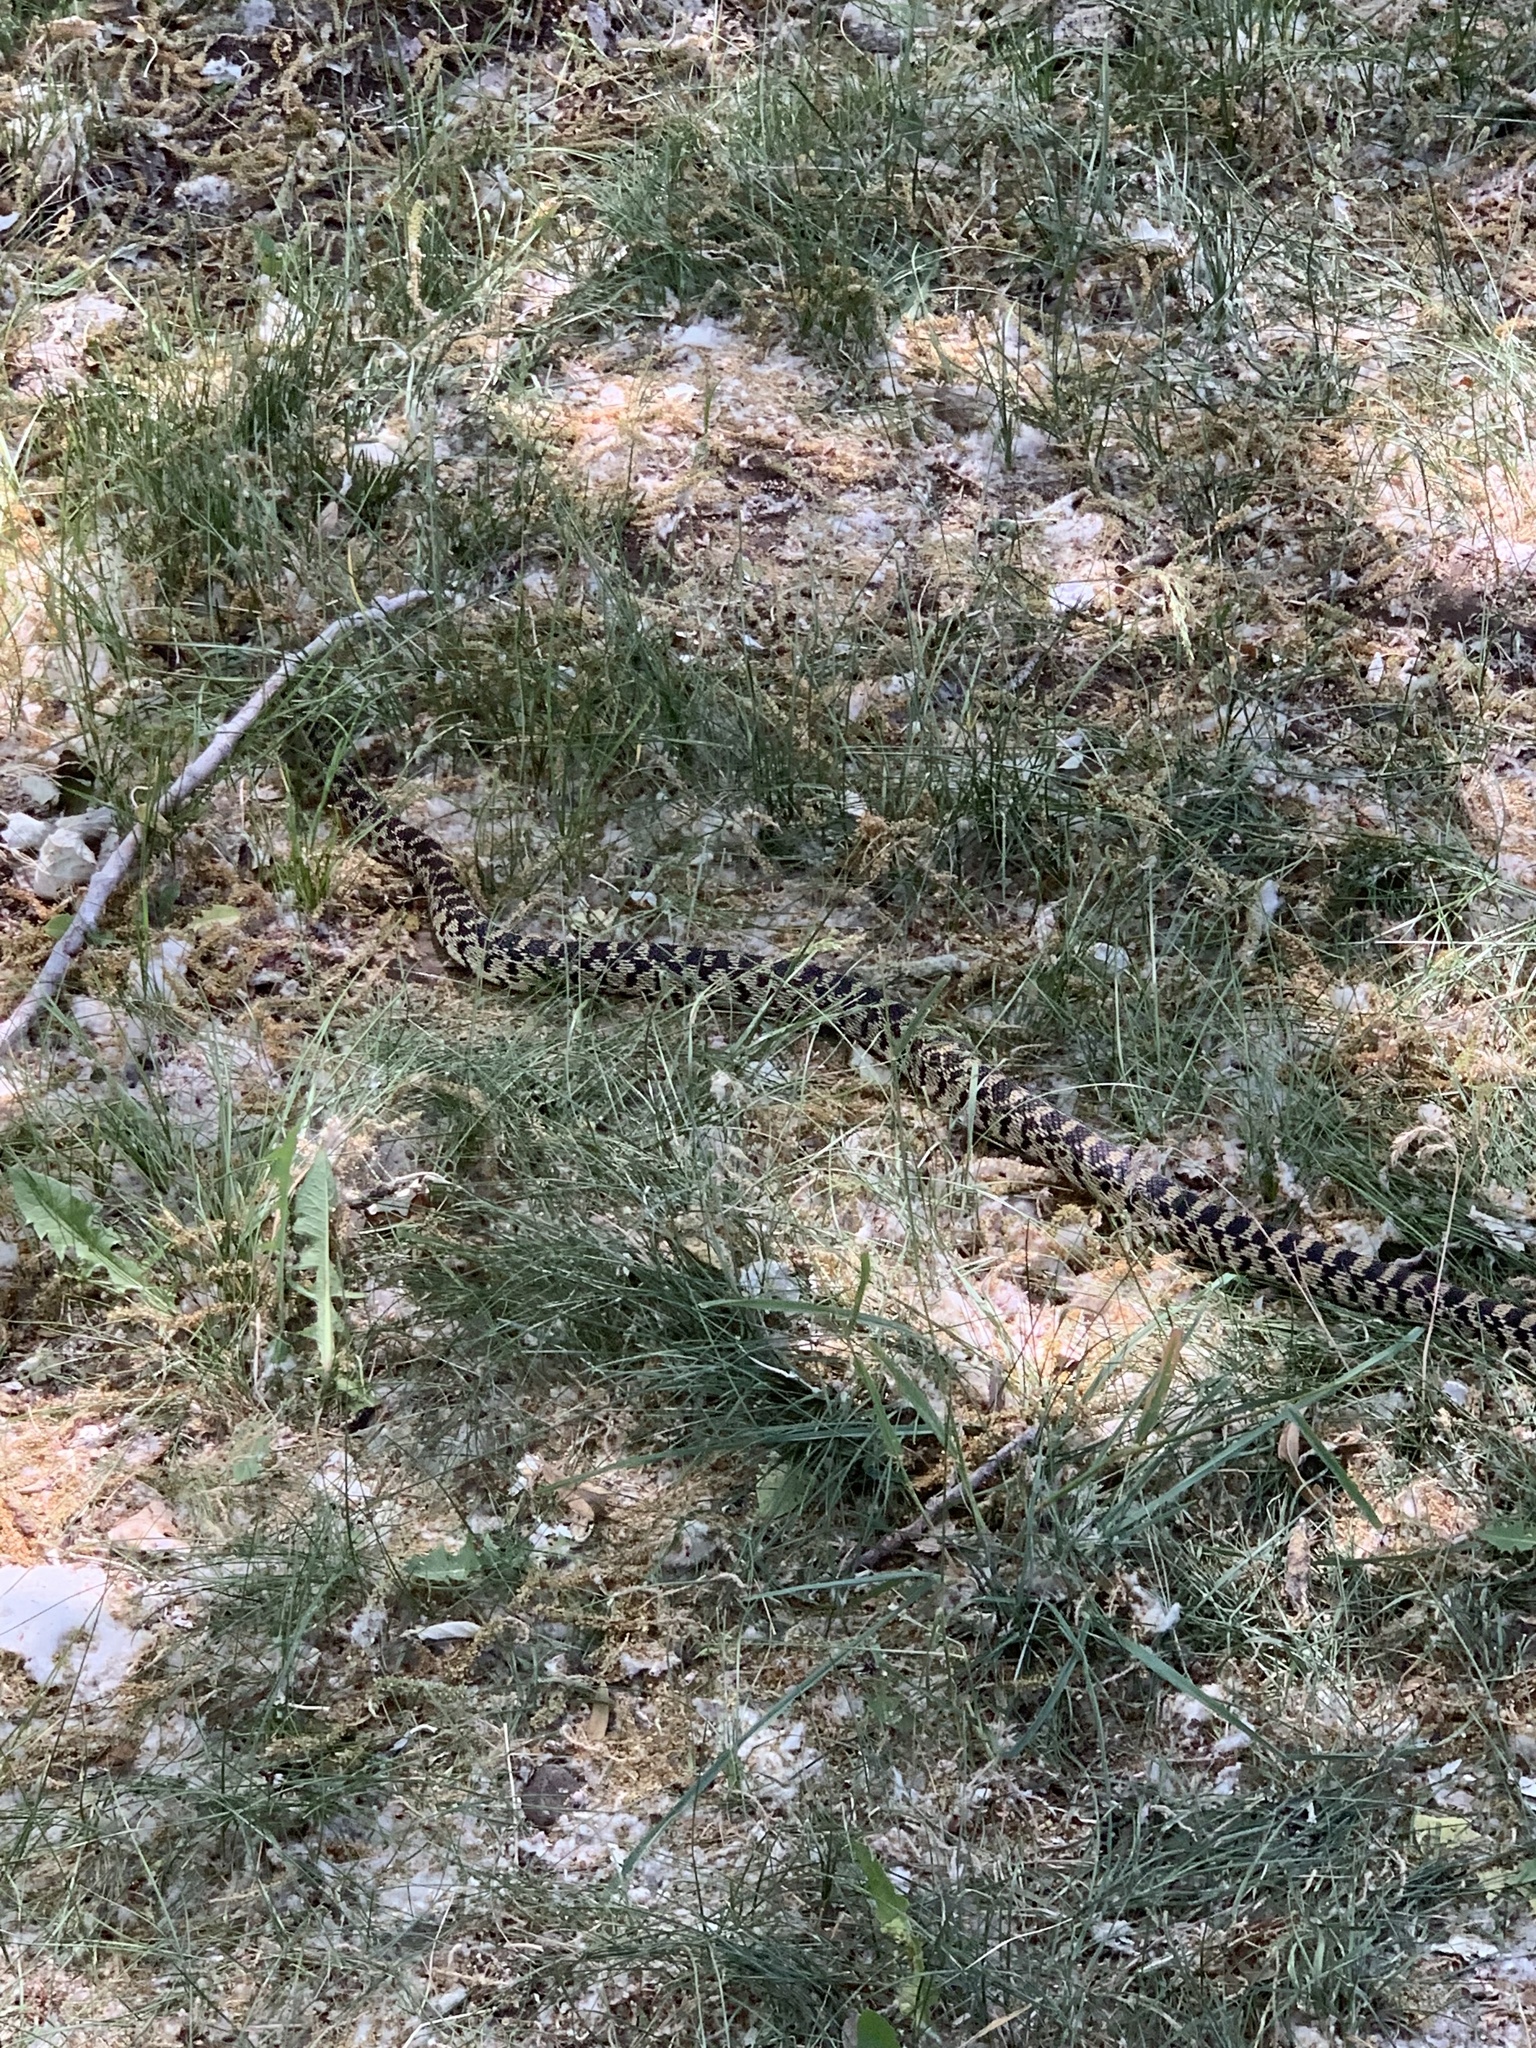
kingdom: Animalia
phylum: Chordata
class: Squamata
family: Colubridae
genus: Pituophis
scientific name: Pituophis catenifer
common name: Gopher snake
